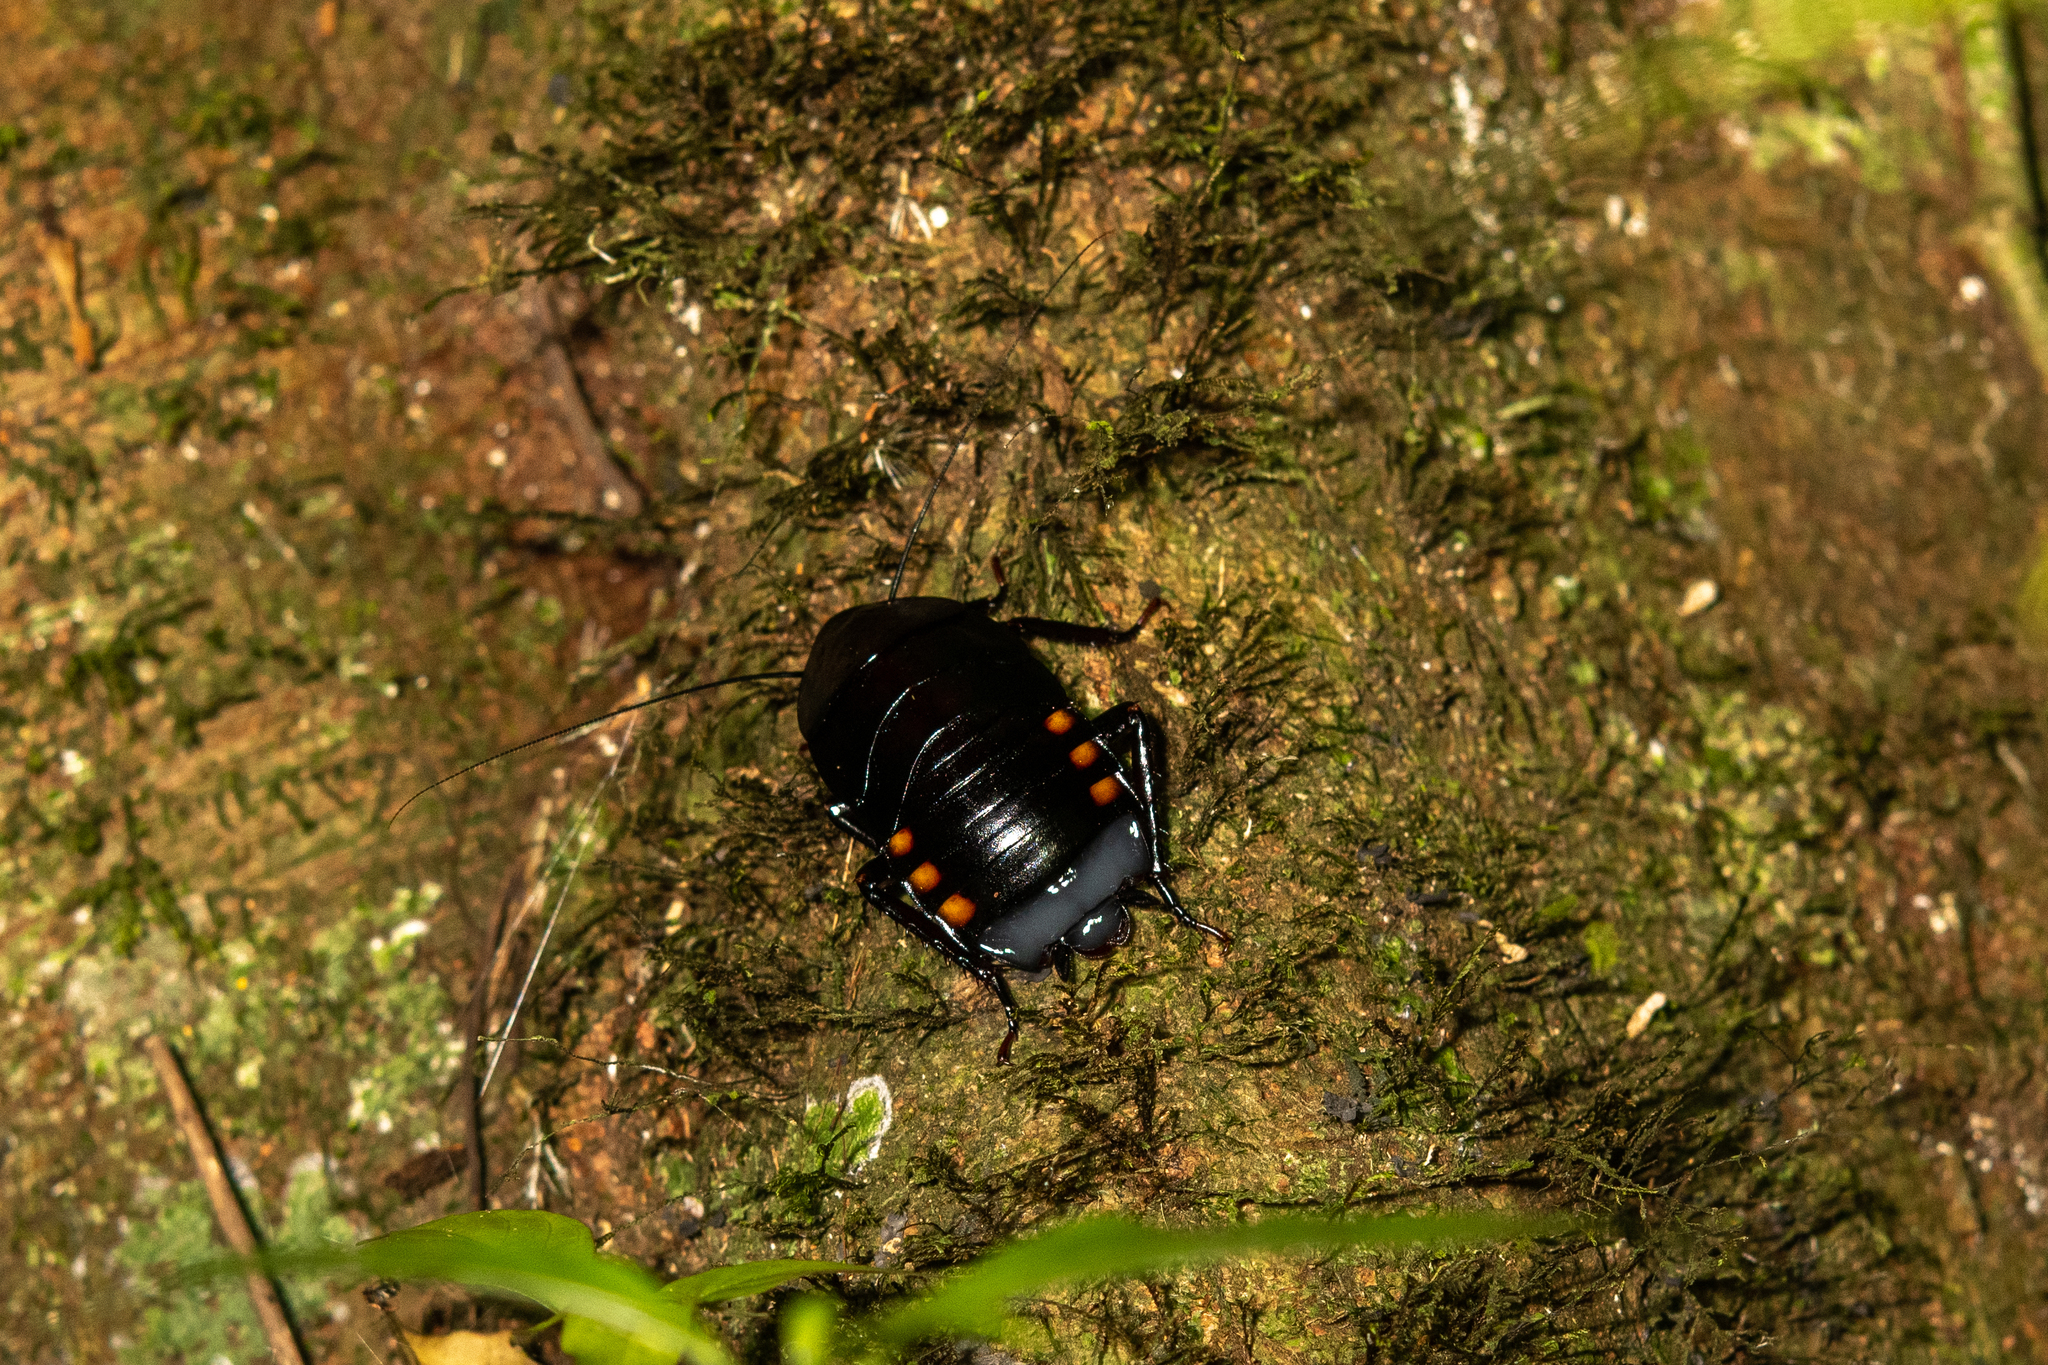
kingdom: Animalia
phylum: Arthropoda
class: Insecta
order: Blattodea
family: Ectobiidae
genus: Megaloblatta
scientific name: Megaloblatta blaberoides
